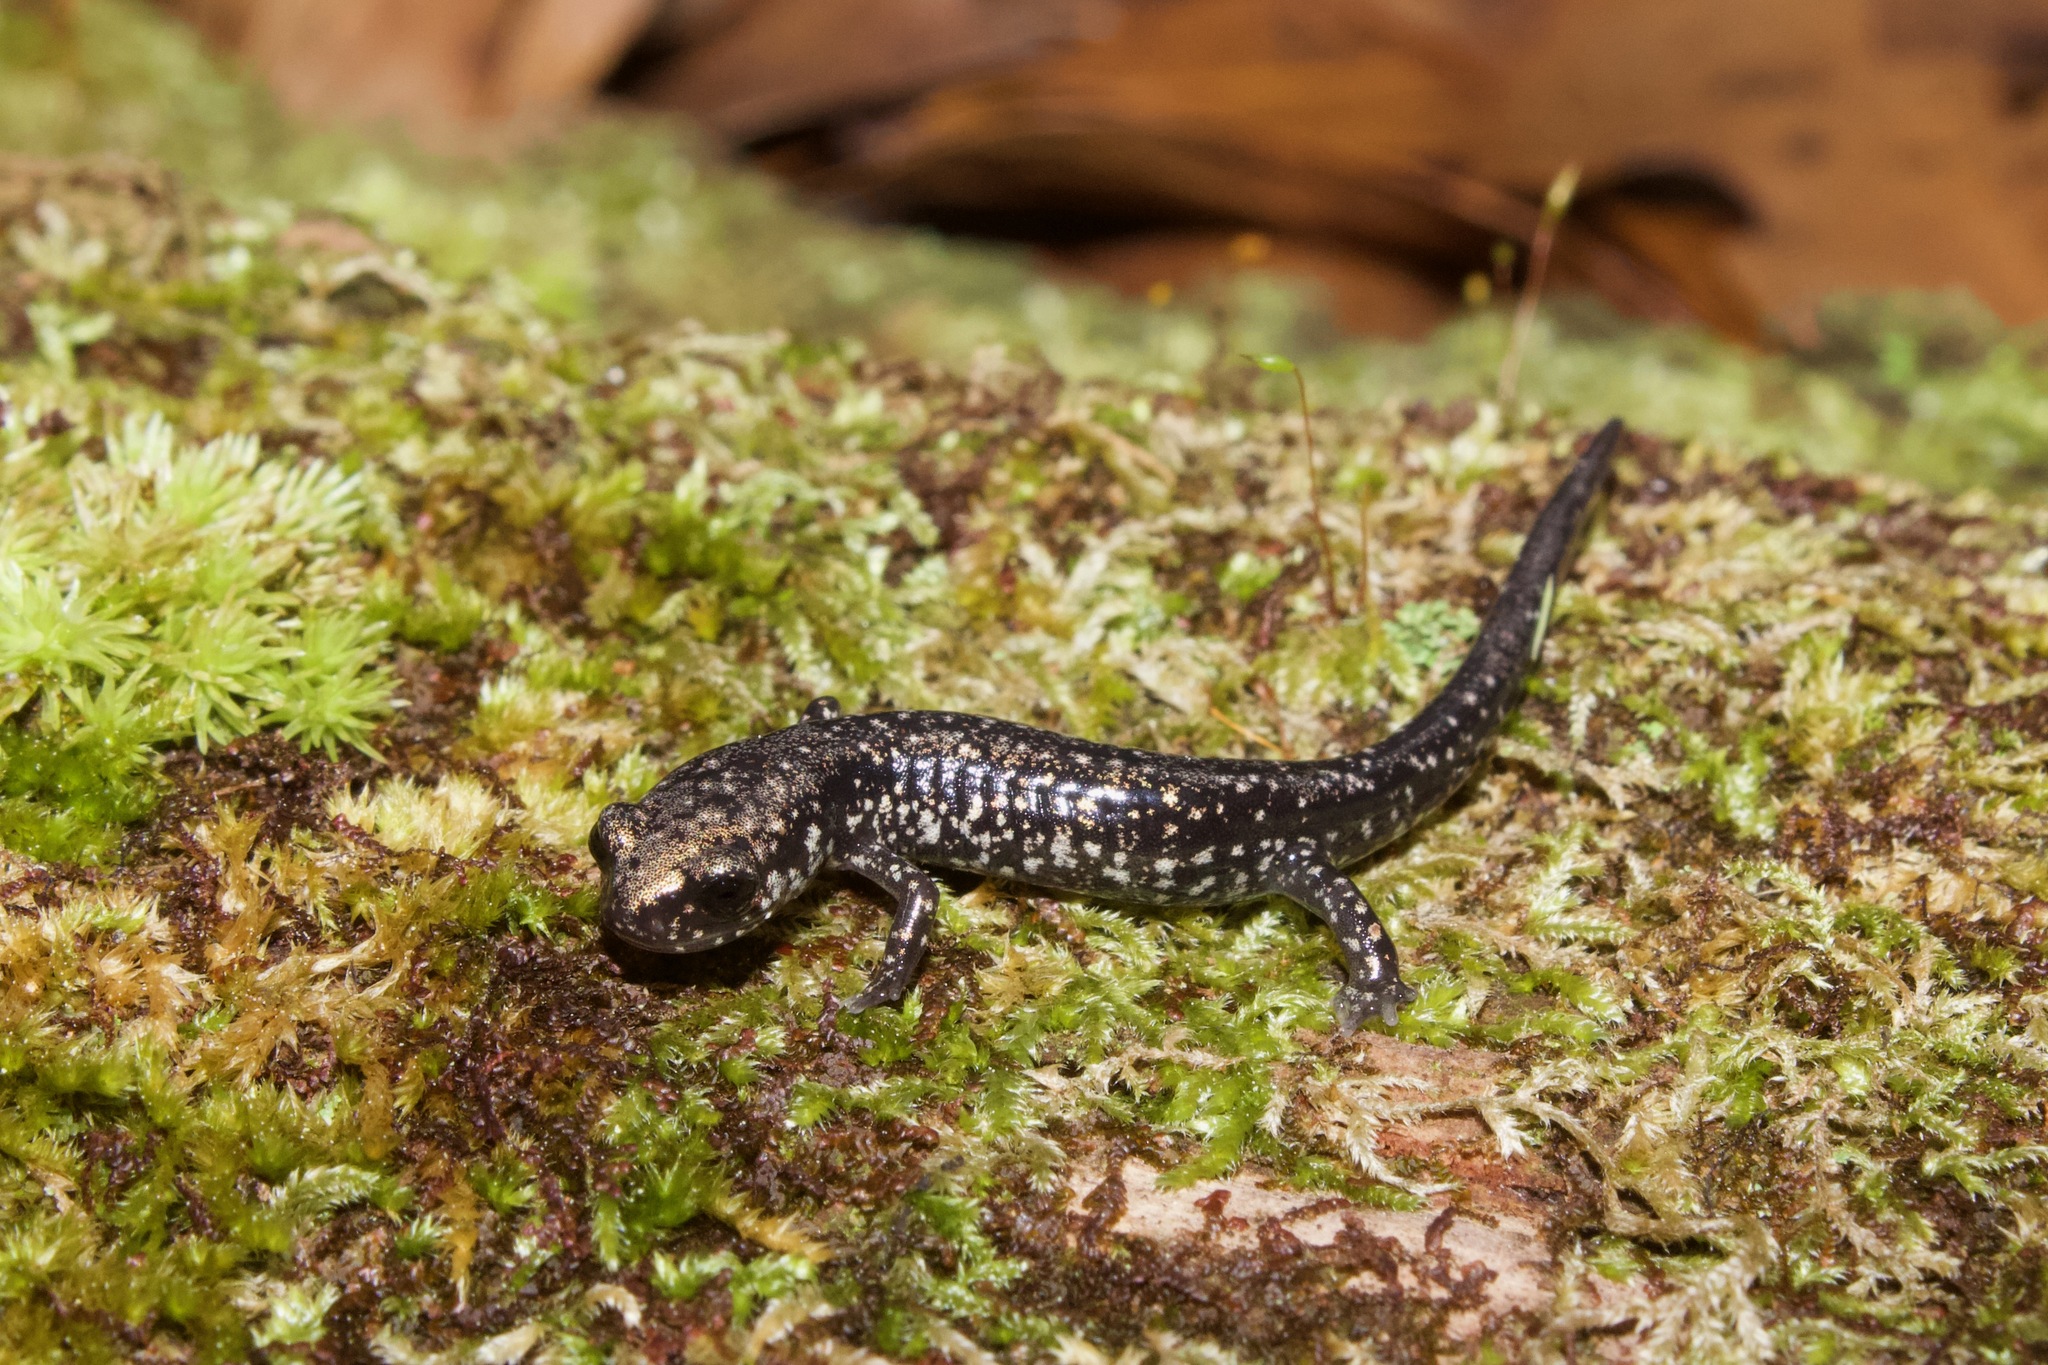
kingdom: Animalia
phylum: Chordata
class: Amphibia
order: Caudata
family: Plethodontidae
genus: Plethodon
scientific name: Plethodon mississippi
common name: Mississippi slimy salamander
